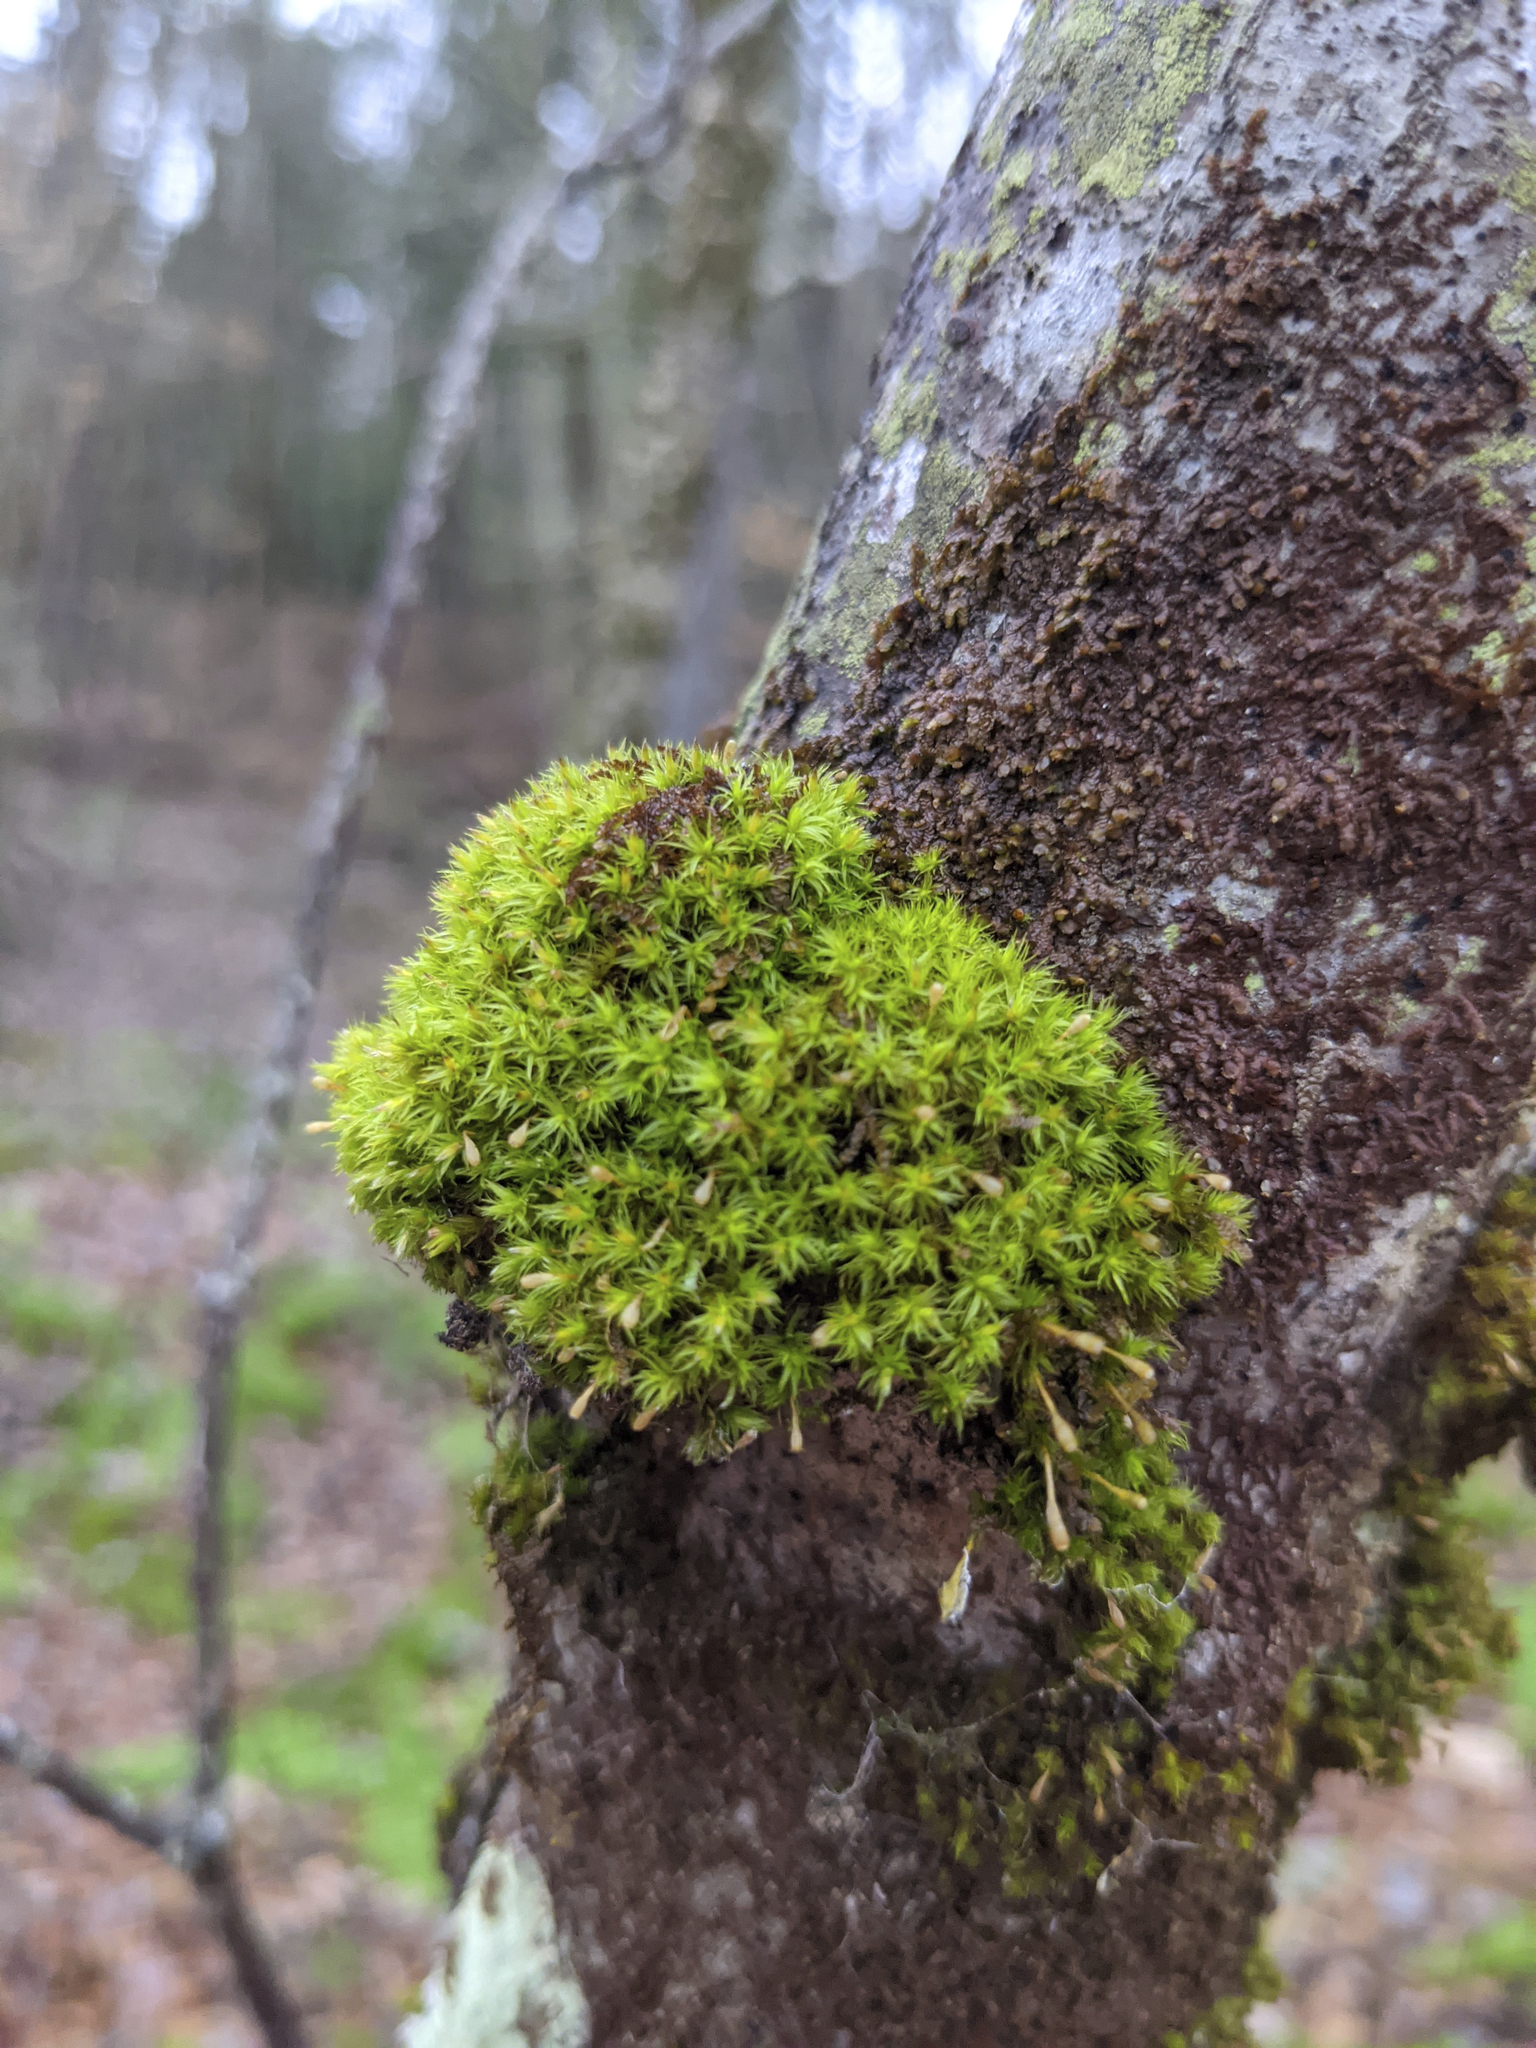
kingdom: Plantae
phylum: Bryophyta
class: Bryopsida
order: Orthotrichales
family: Orthotrichaceae
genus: Ulota
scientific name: Ulota crispa
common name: Crisped pincushion moss
